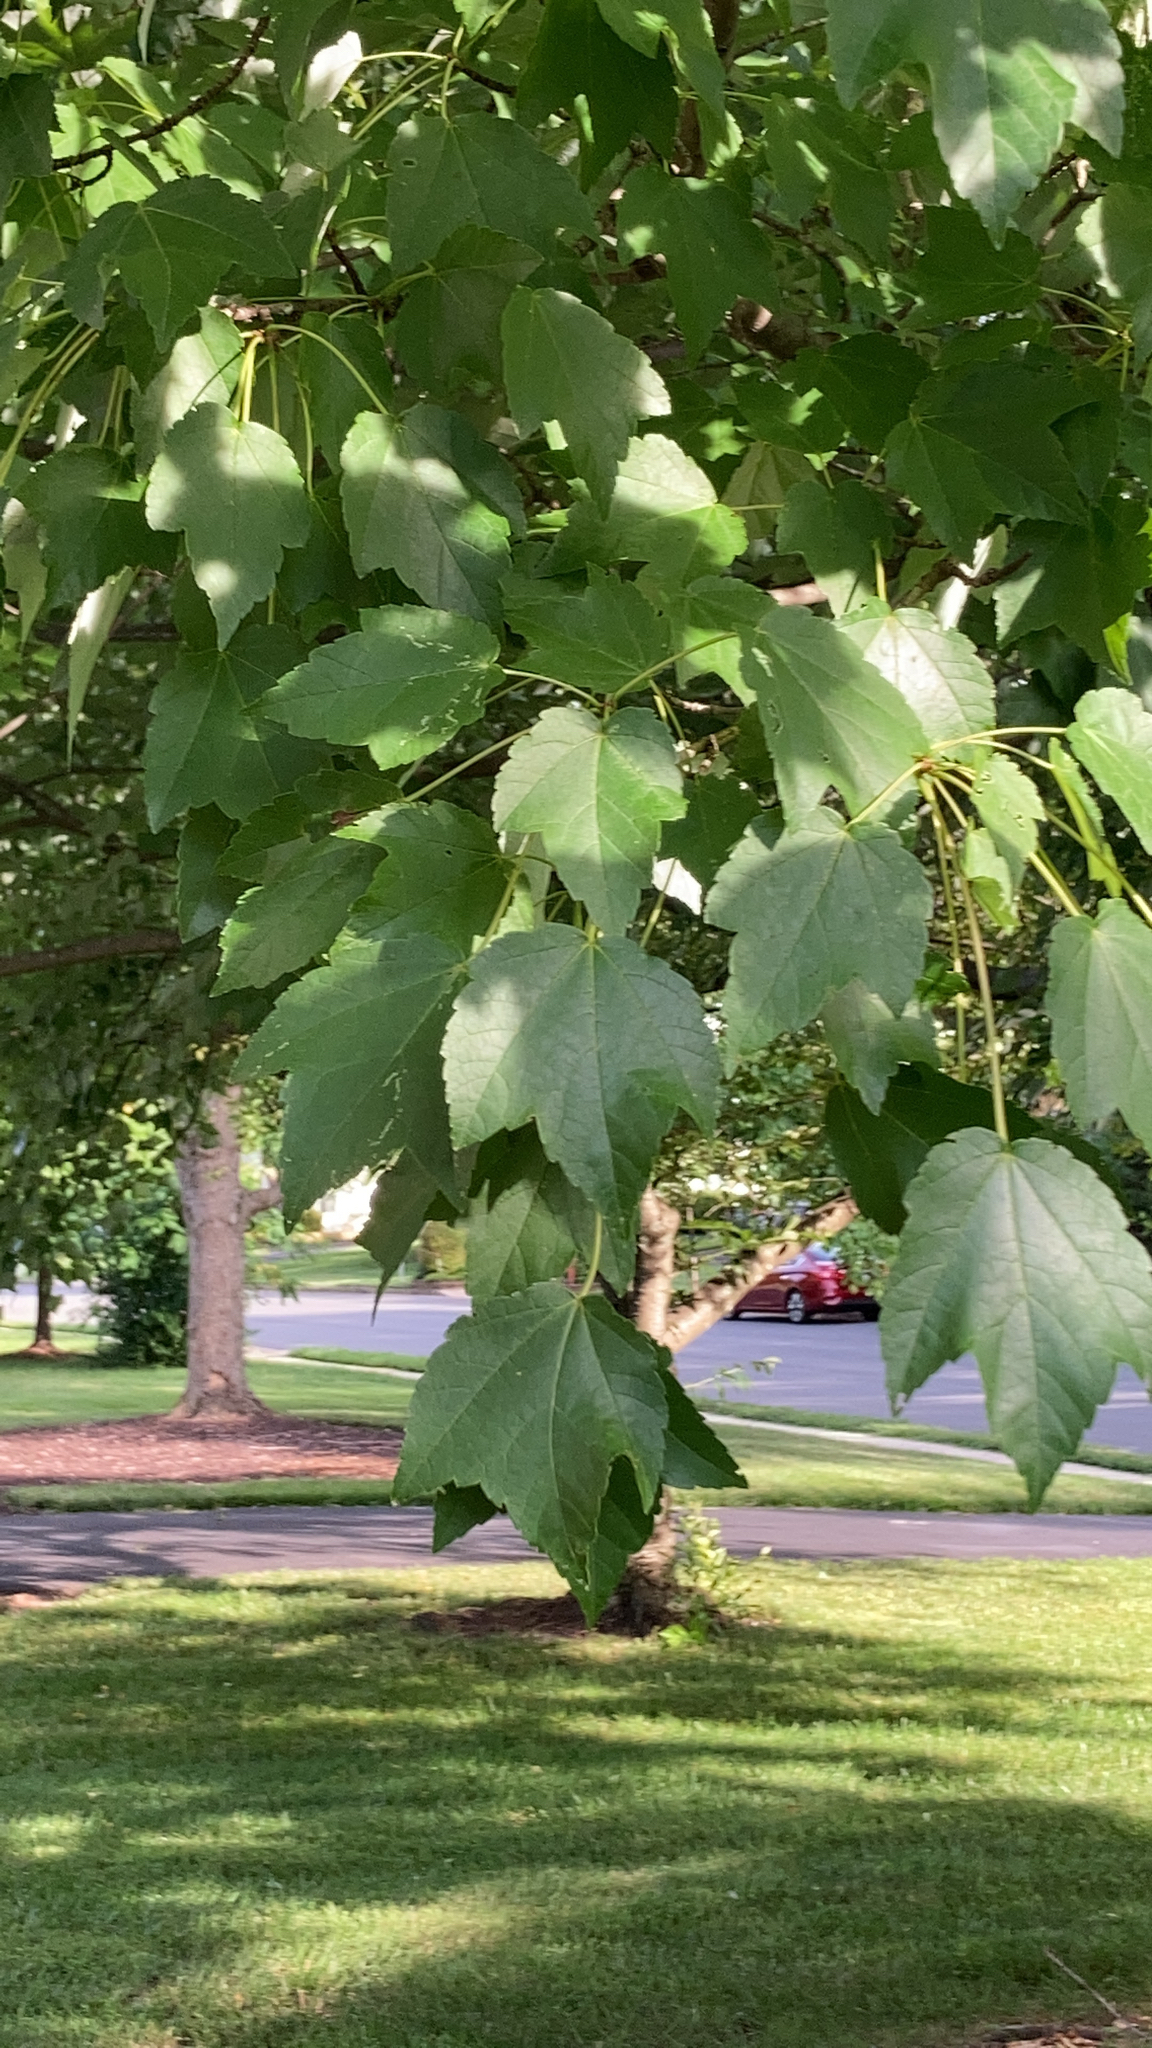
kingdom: Plantae
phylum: Tracheophyta
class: Magnoliopsida
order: Sapindales
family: Sapindaceae
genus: Acer
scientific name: Acer rubrum
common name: Red maple
